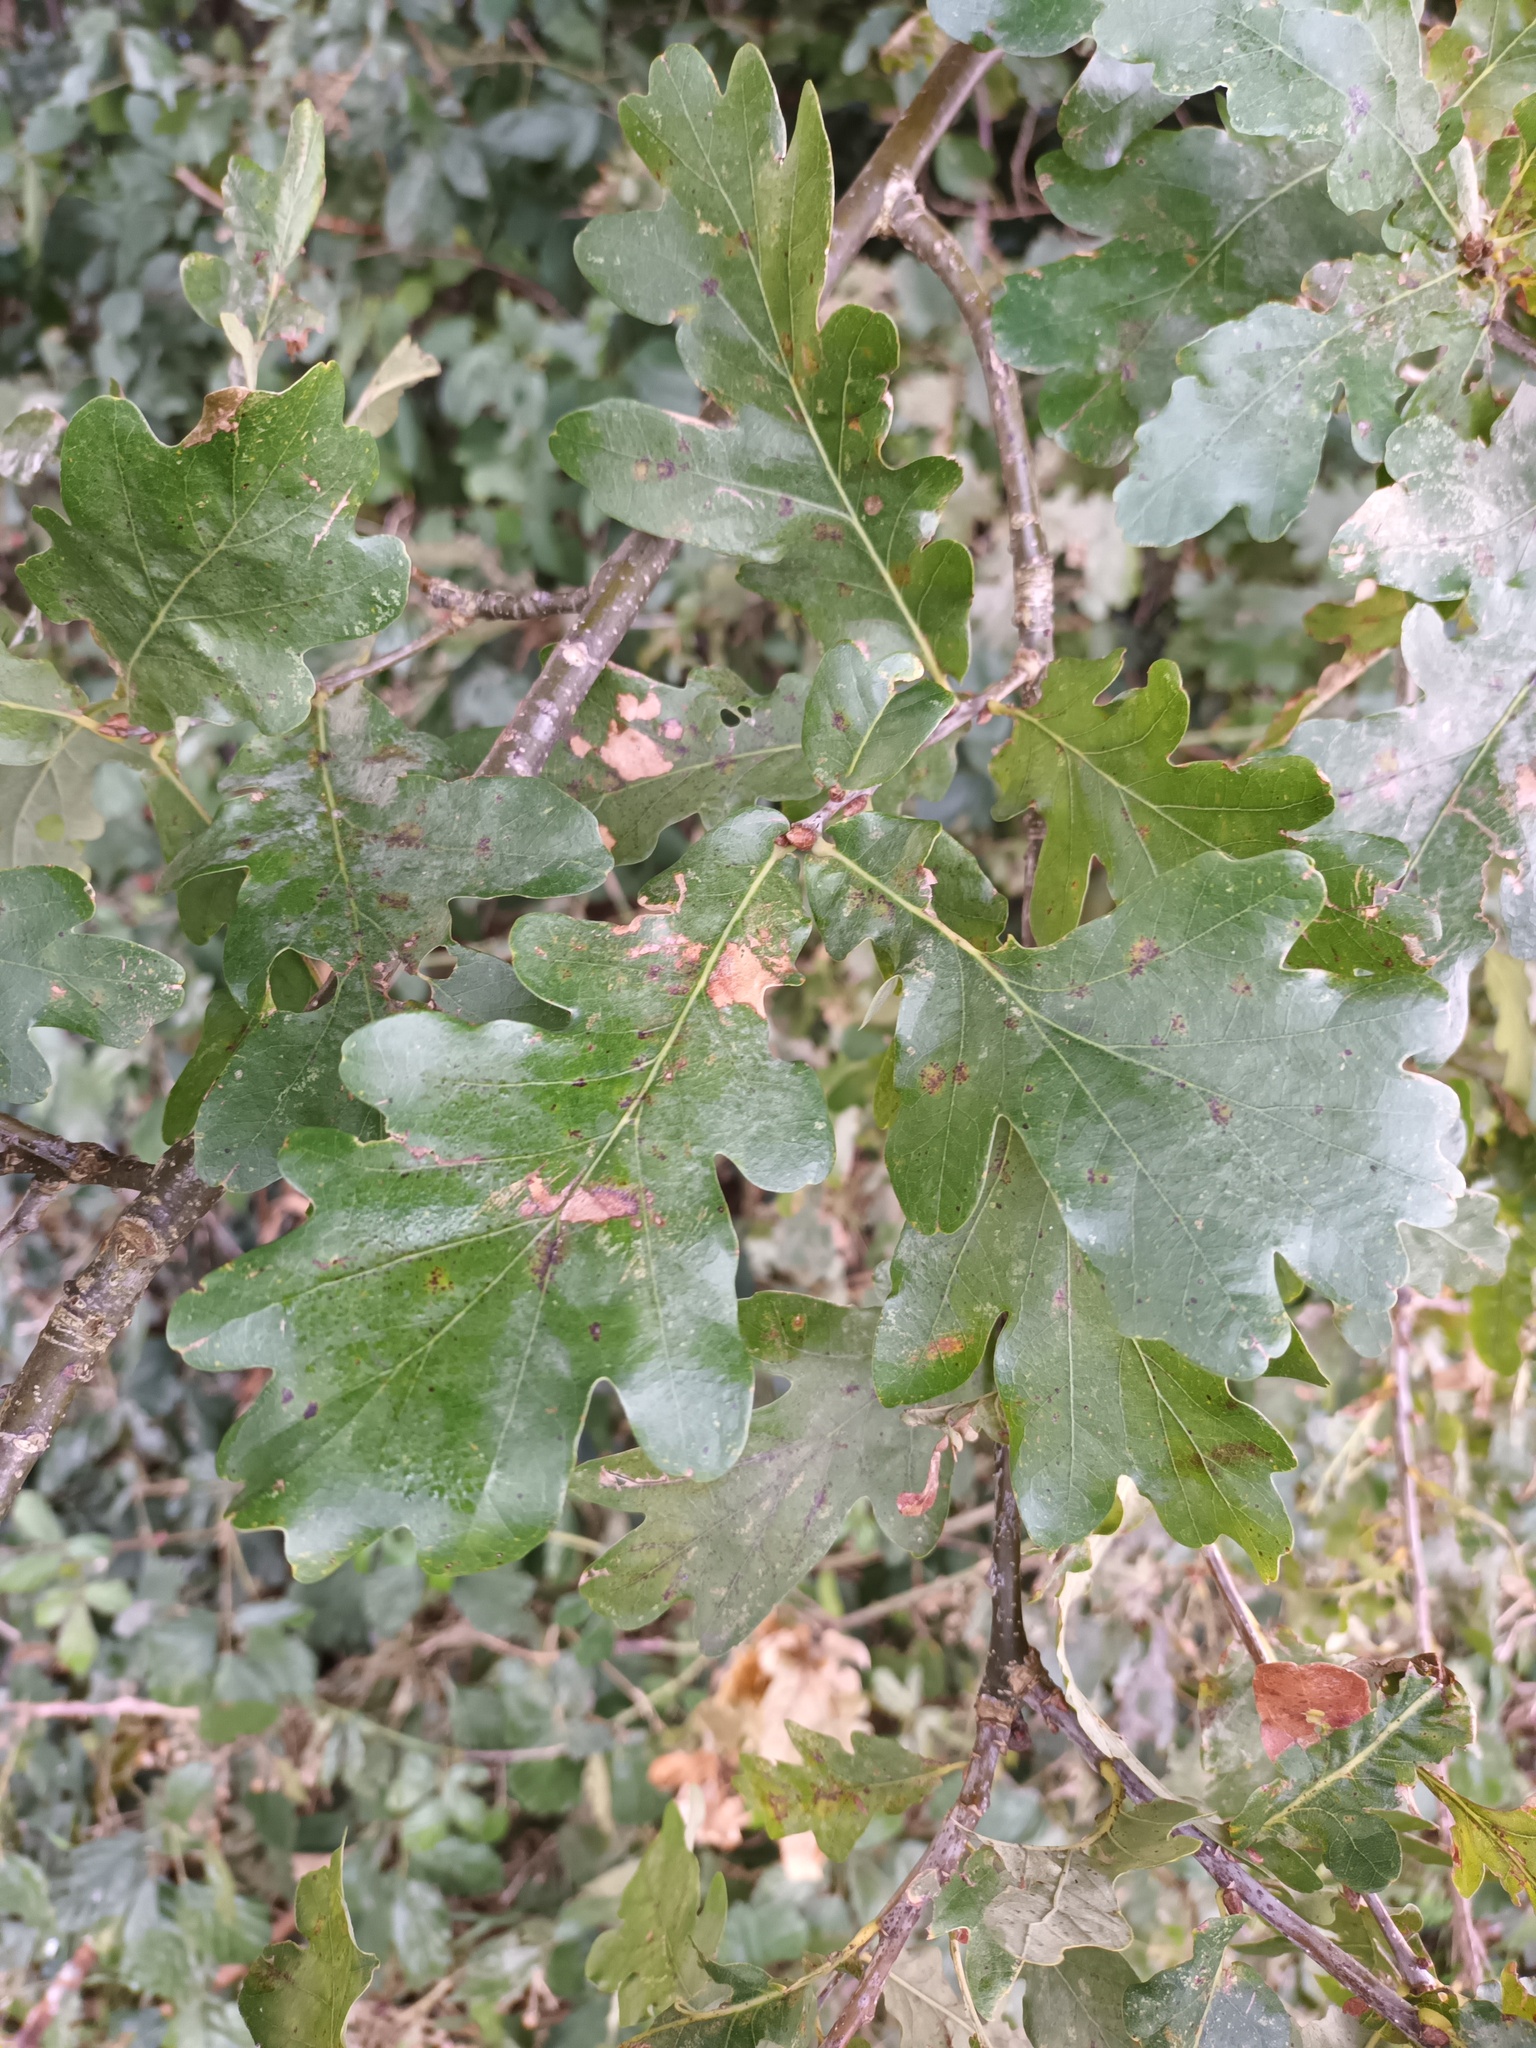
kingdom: Plantae
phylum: Tracheophyta
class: Magnoliopsida
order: Fagales
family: Fagaceae
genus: Quercus
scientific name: Quercus robur
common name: Pedunculate oak
